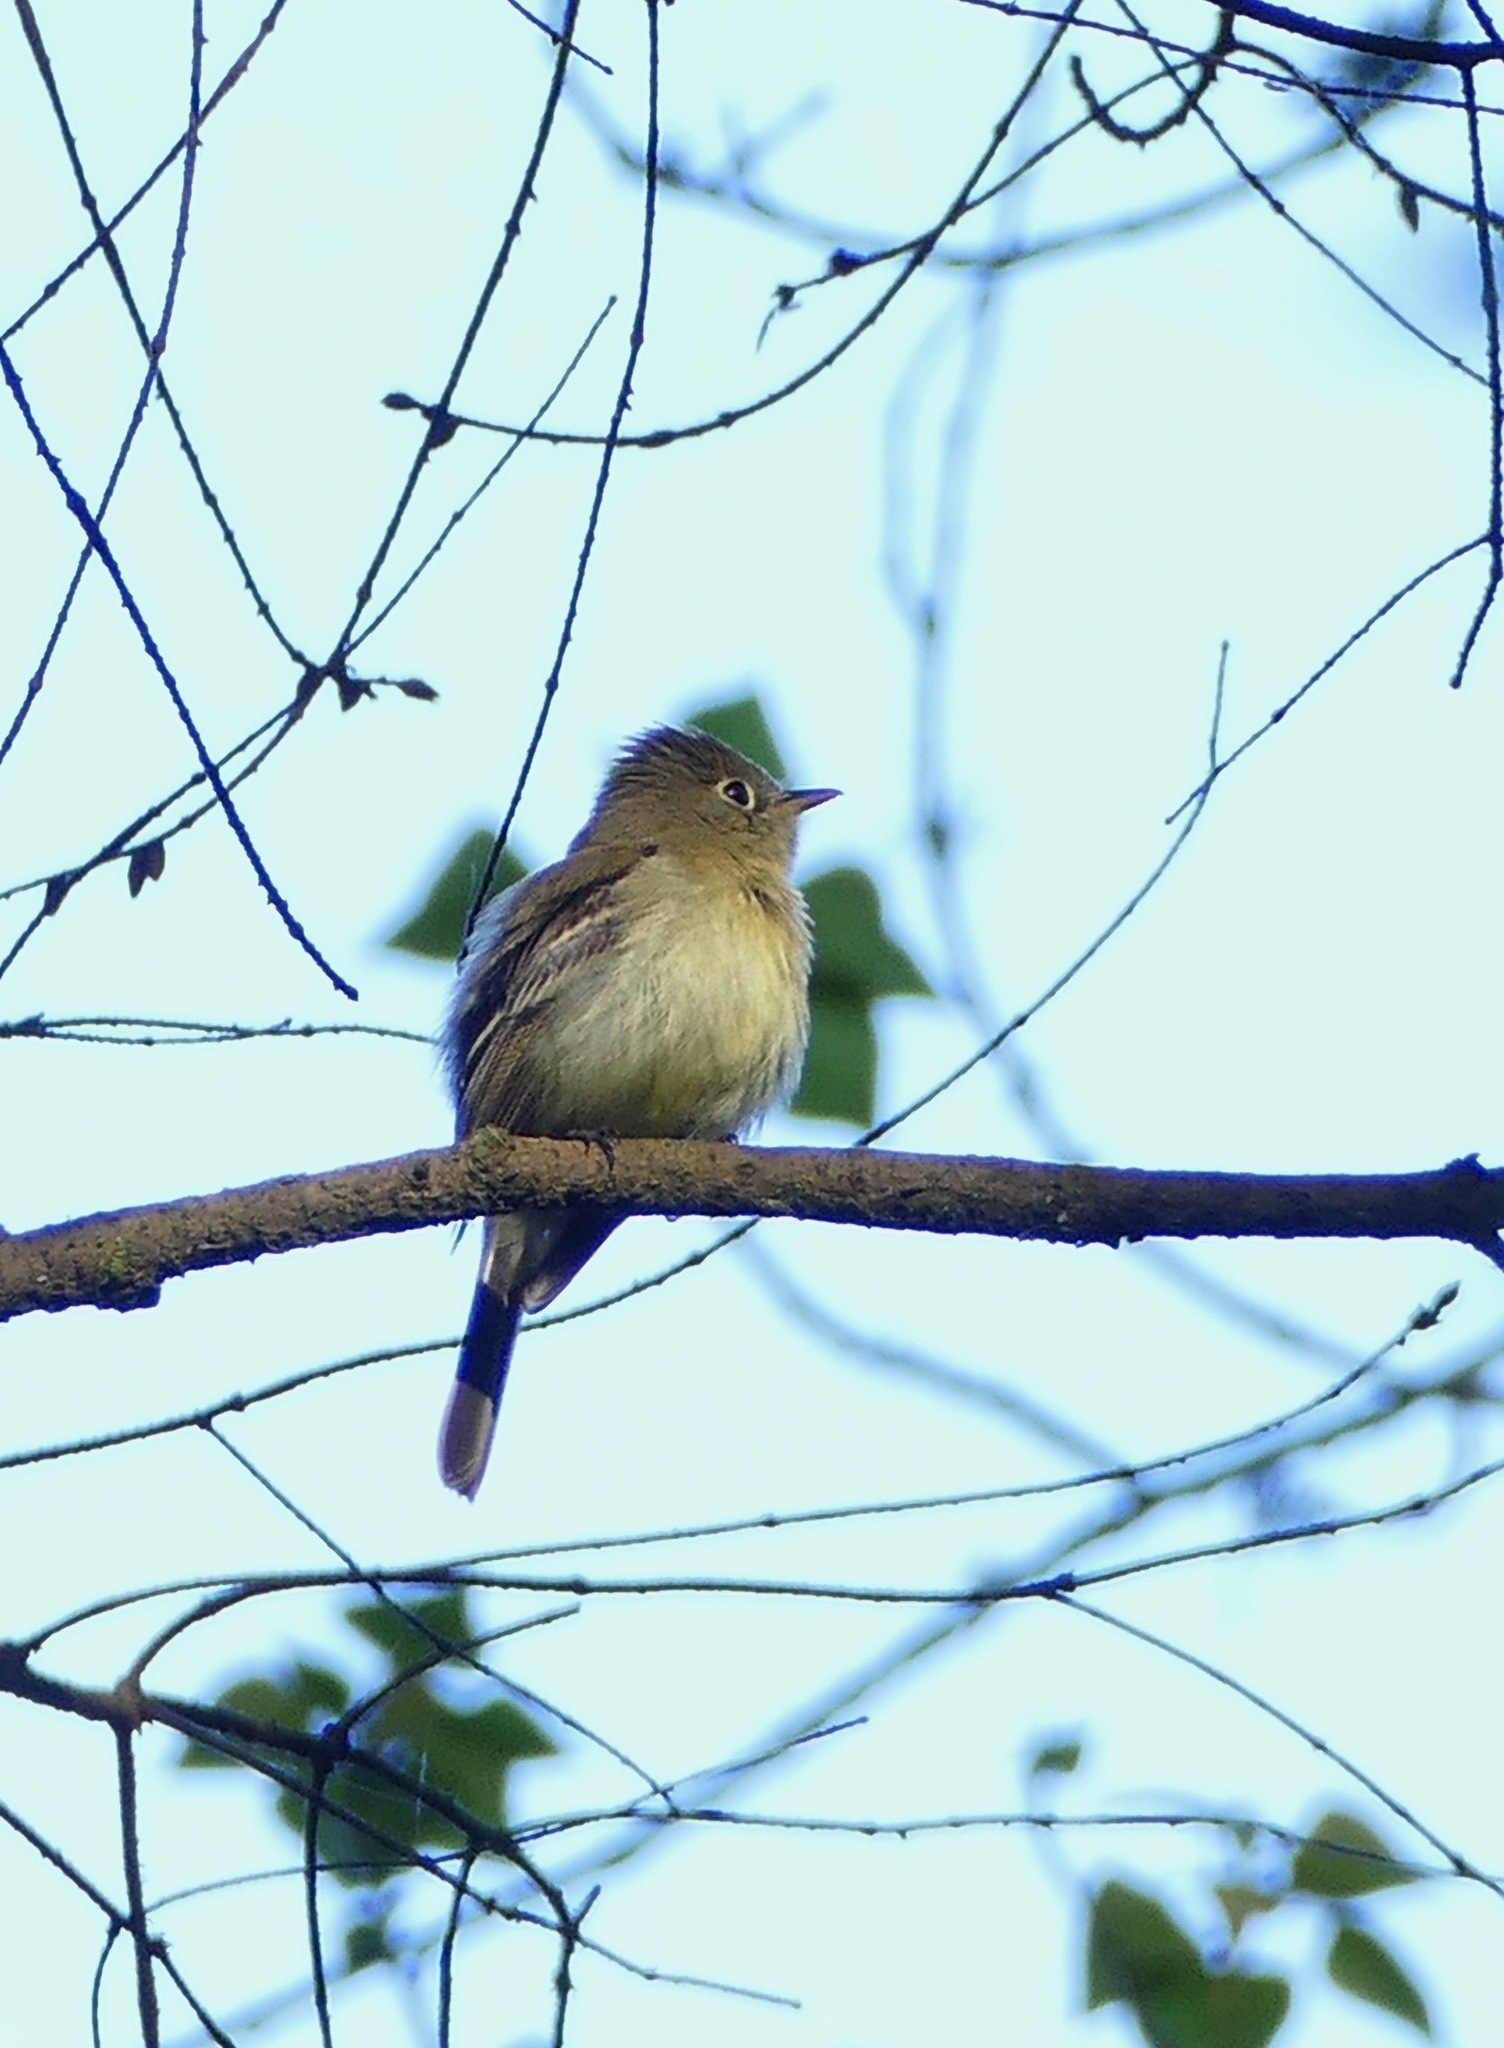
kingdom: Animalia
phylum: Chordata
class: Aves
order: Passeriformes
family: Tyrannidae
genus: Empidonax
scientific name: Empidonax difficilis
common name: Pacific-slope flycatcher
